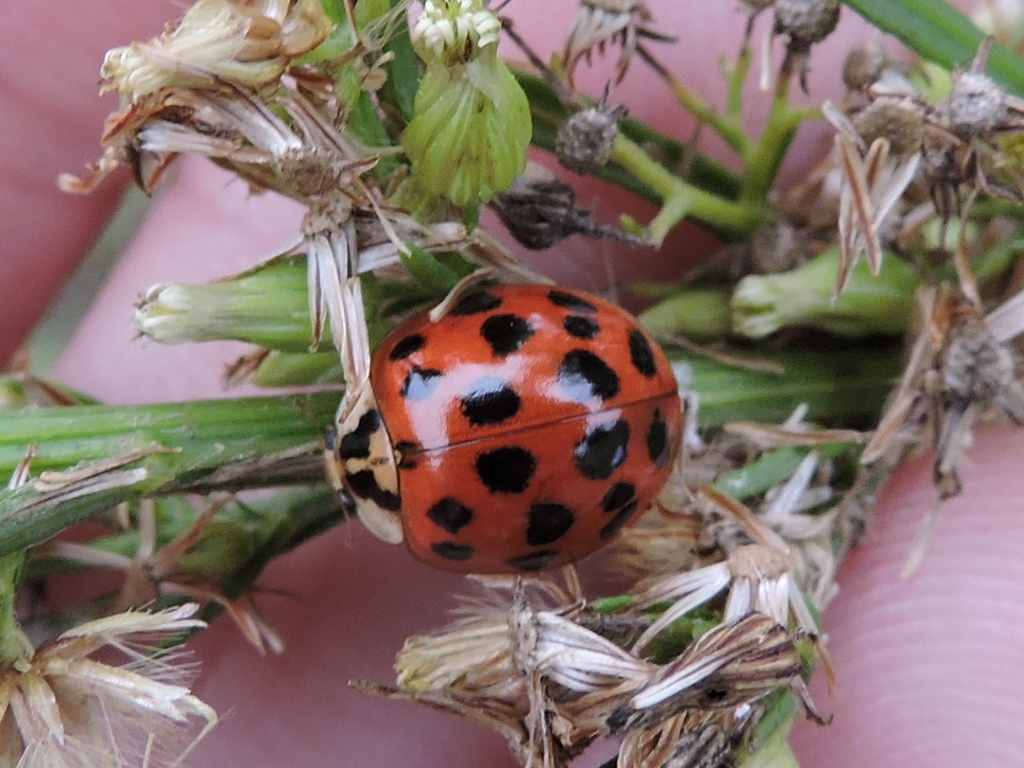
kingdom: Animalia
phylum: Arthropoda
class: Insecta
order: Coleoptera
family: Coccinellidae
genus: Harmonia
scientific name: Harmonia axyridis
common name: Harlequin ladybird
